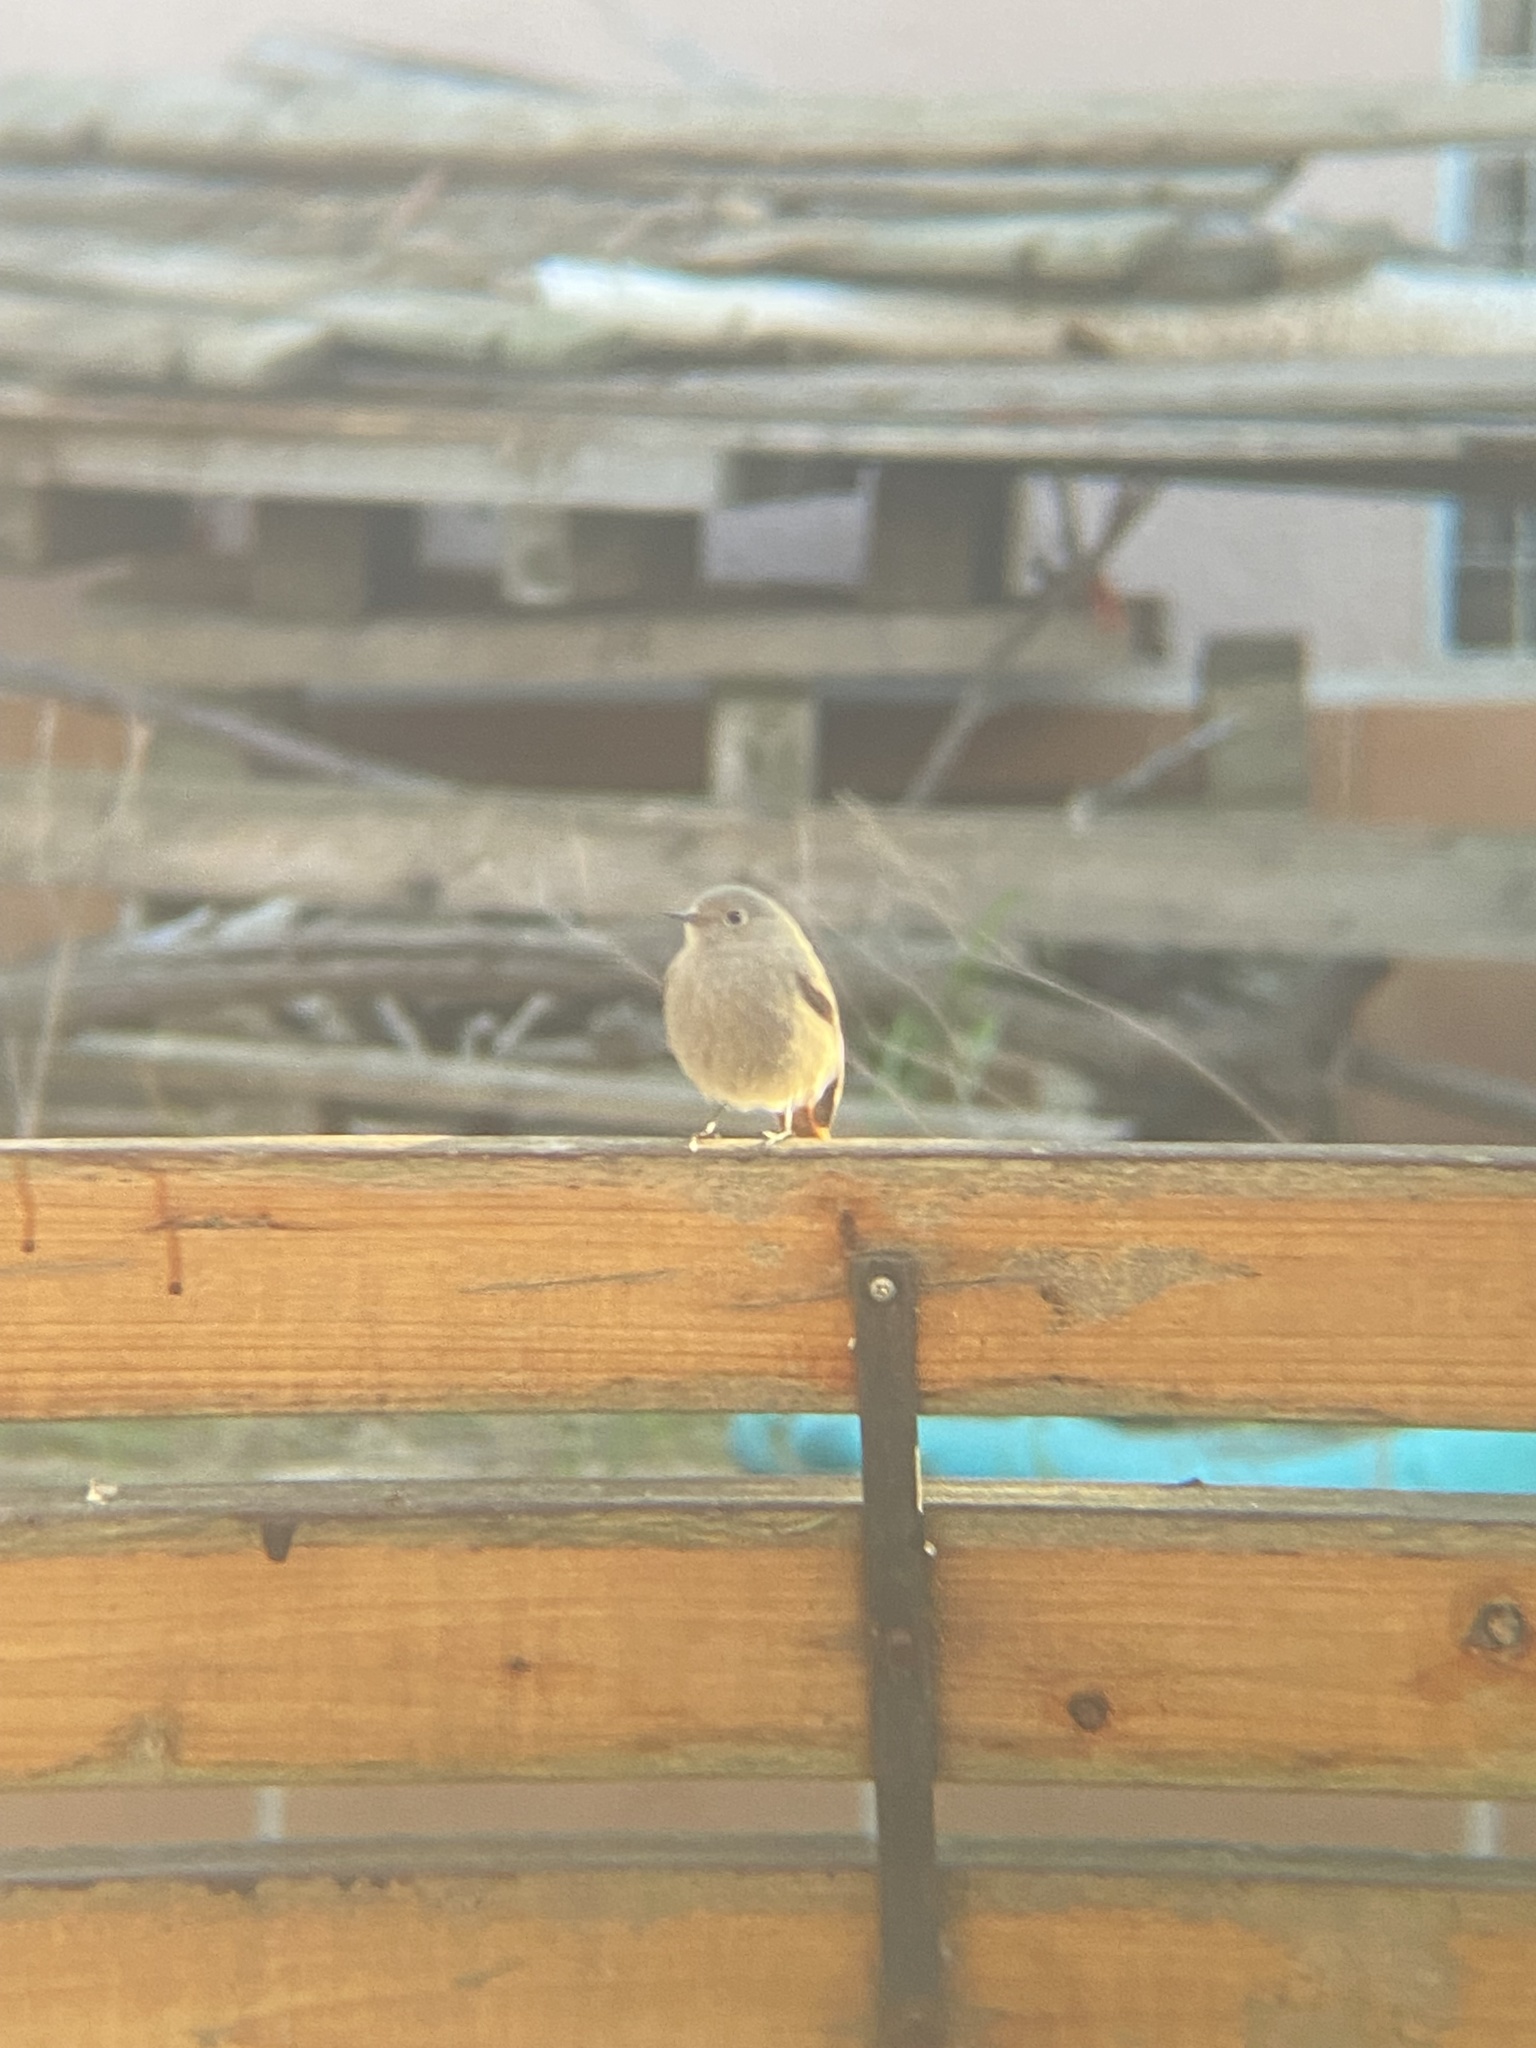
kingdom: Animalia
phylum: Chordata
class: Aves
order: Passeriformes
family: Muscicapidae
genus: Phoenicurus
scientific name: Phoenicurus ochruros
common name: Black redstart
